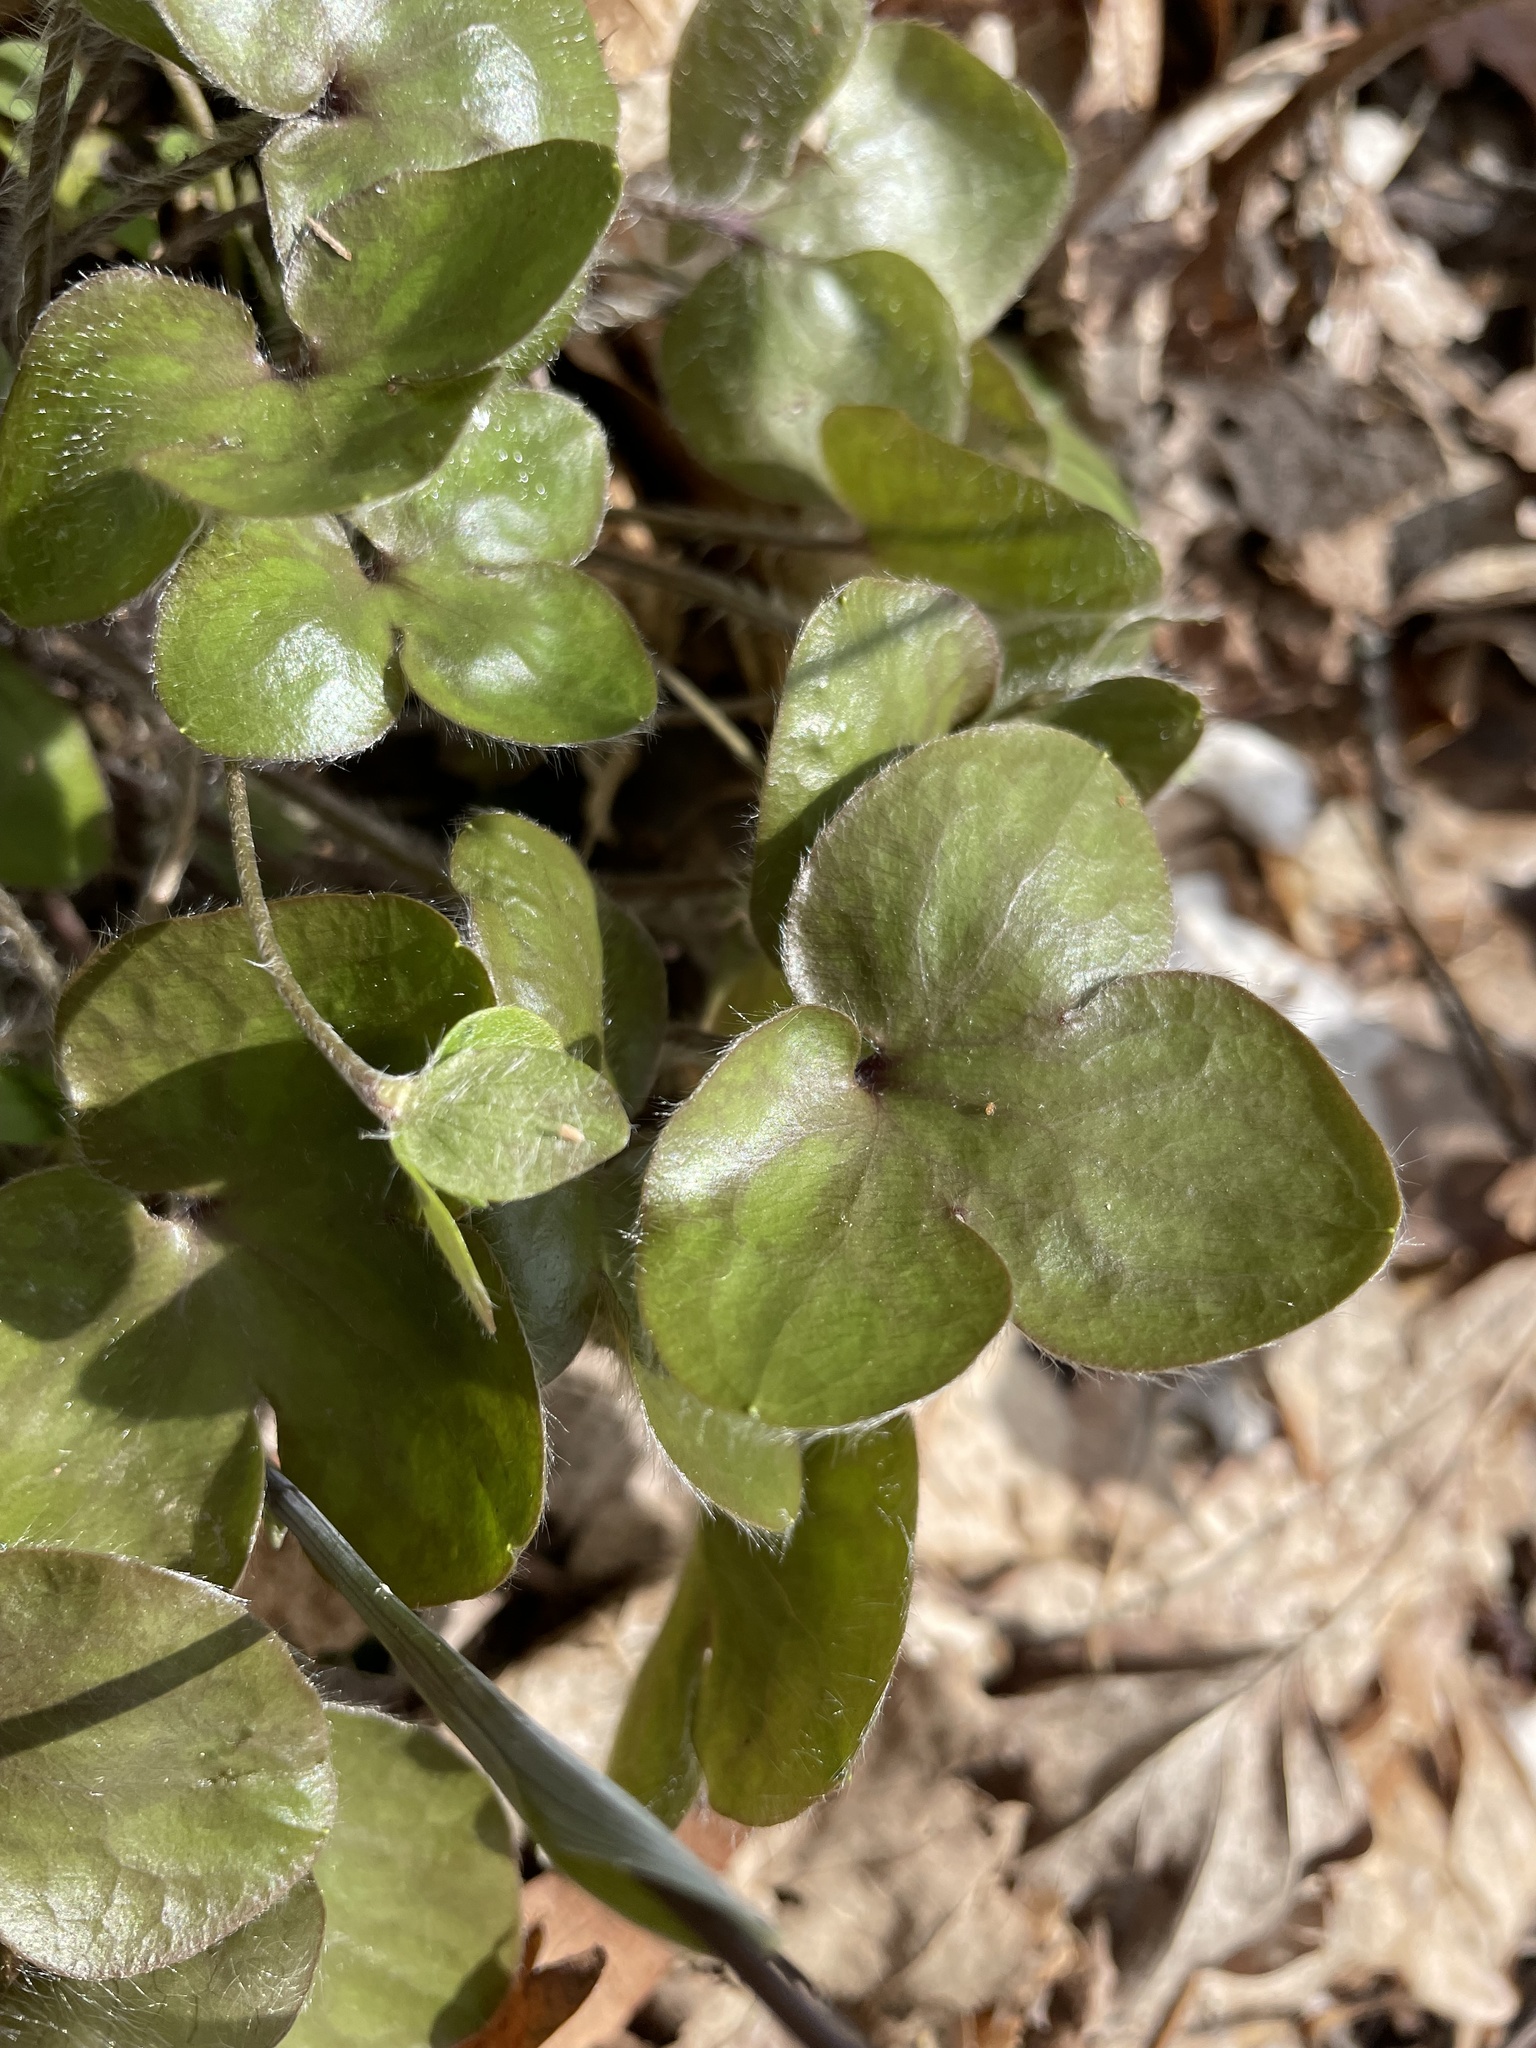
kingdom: Plantae
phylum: Tracheophyta
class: Magnoliopsida
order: Ranunculales
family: Ranunculaceae
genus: Hepatica
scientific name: Hepatica americana
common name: American hepatica
